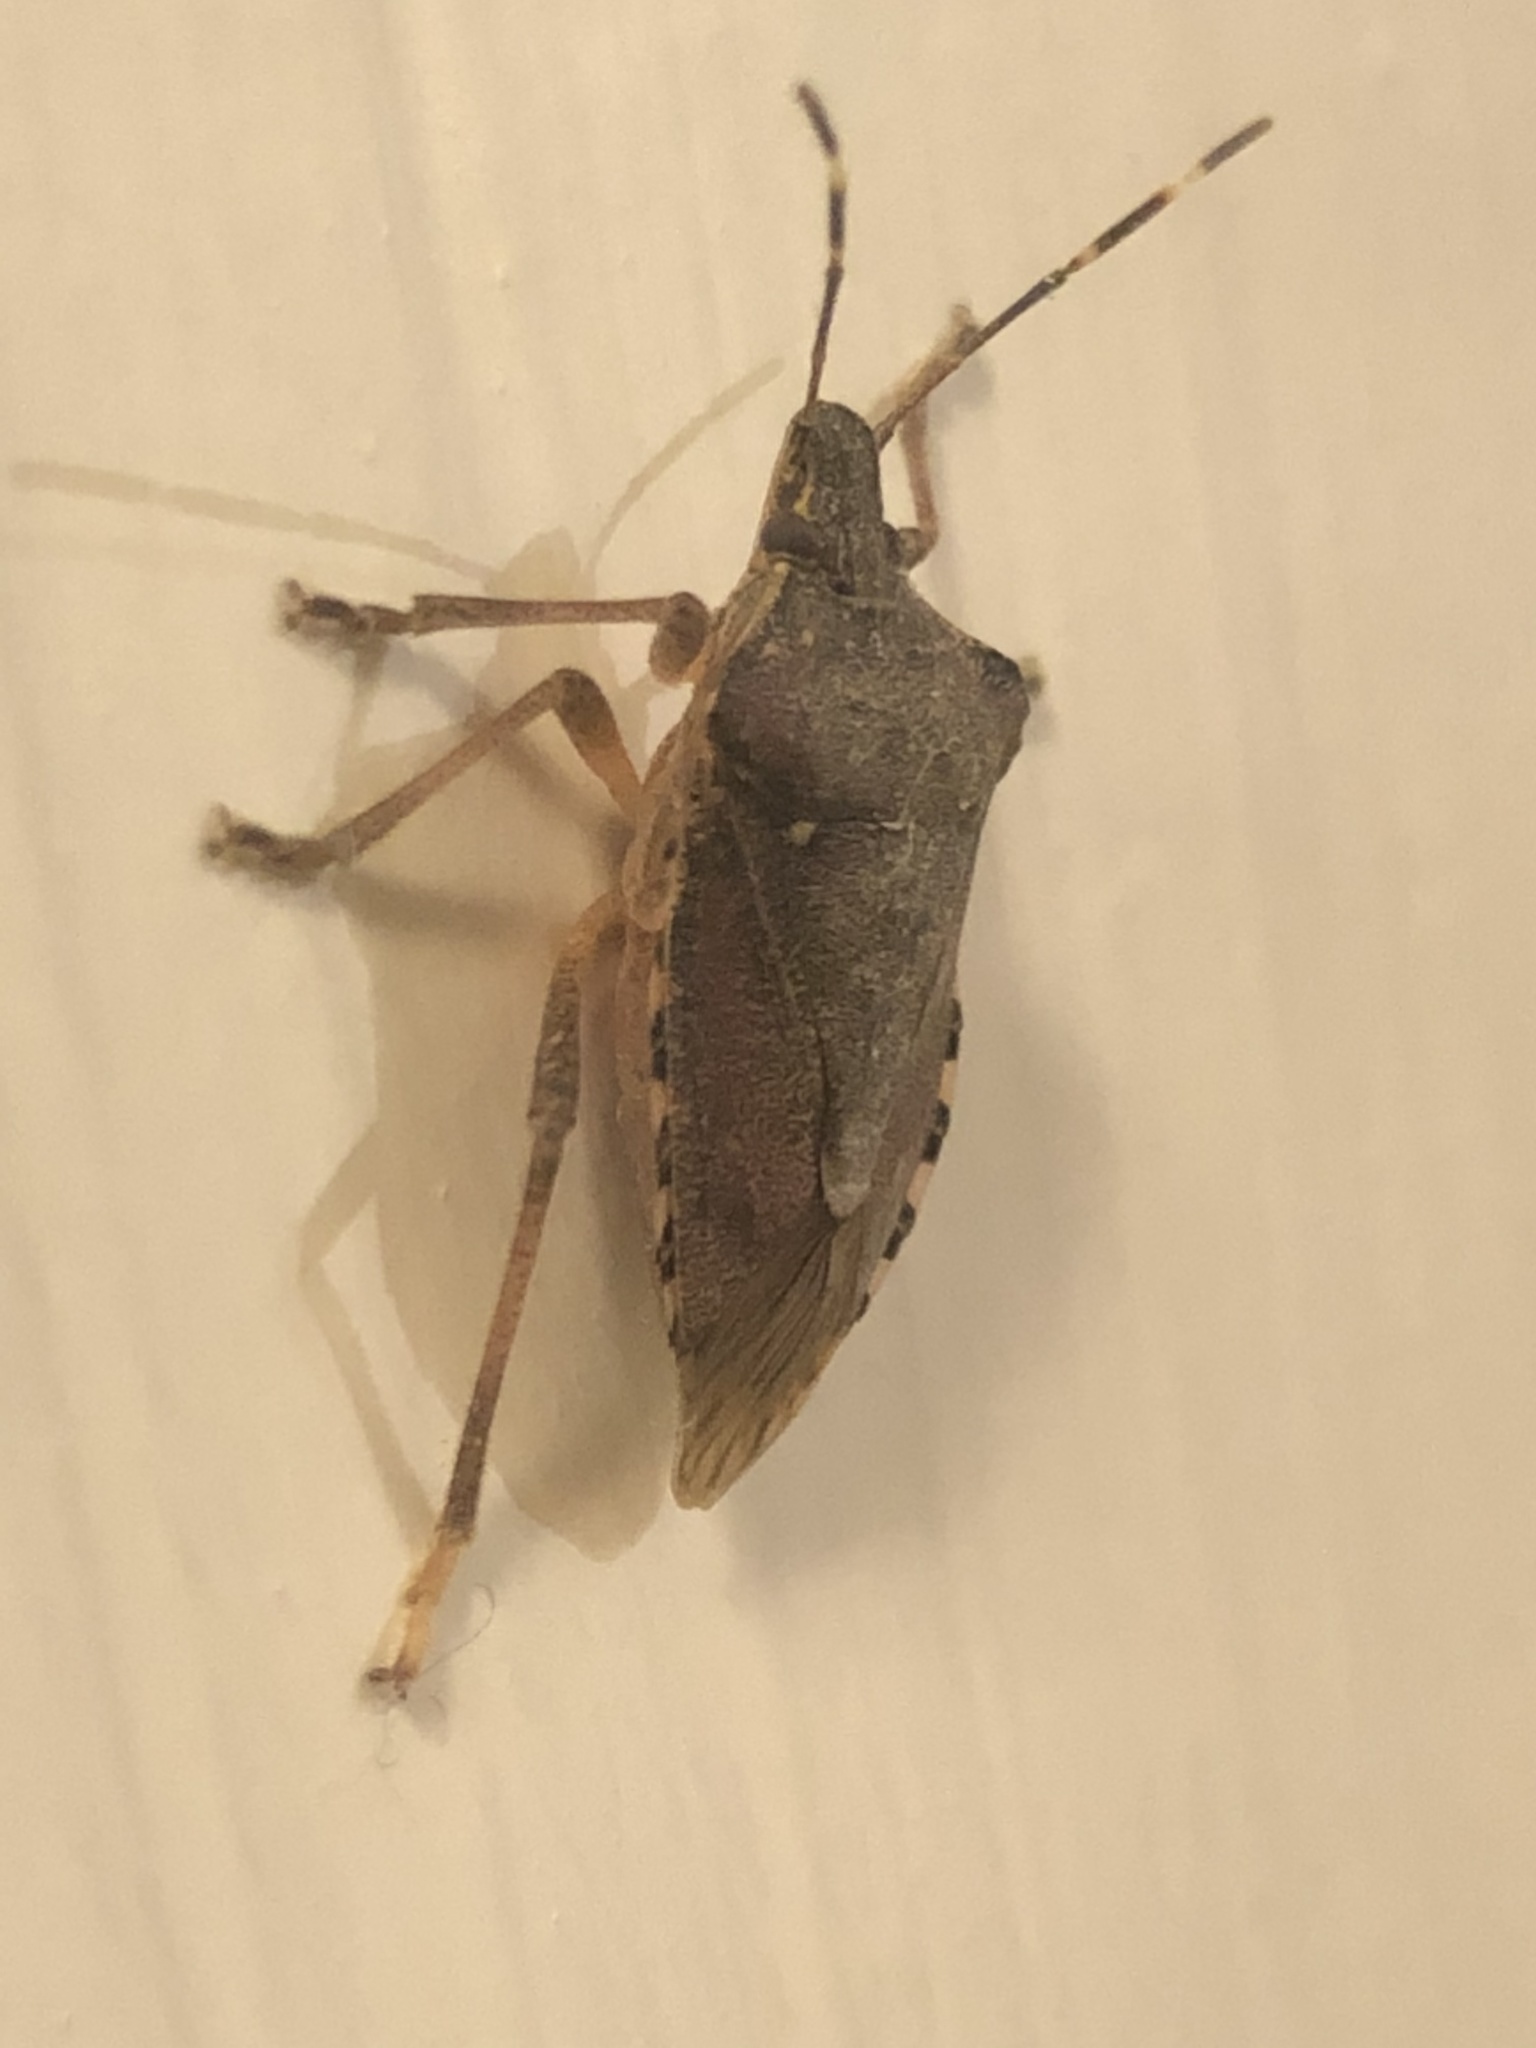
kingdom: Animalia
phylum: Arthropoda
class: Insecta
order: Hemiptera
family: Pentatomidae
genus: Halyomorpha
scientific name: Halyomorpha halys
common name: Brown marmorated stink bug
